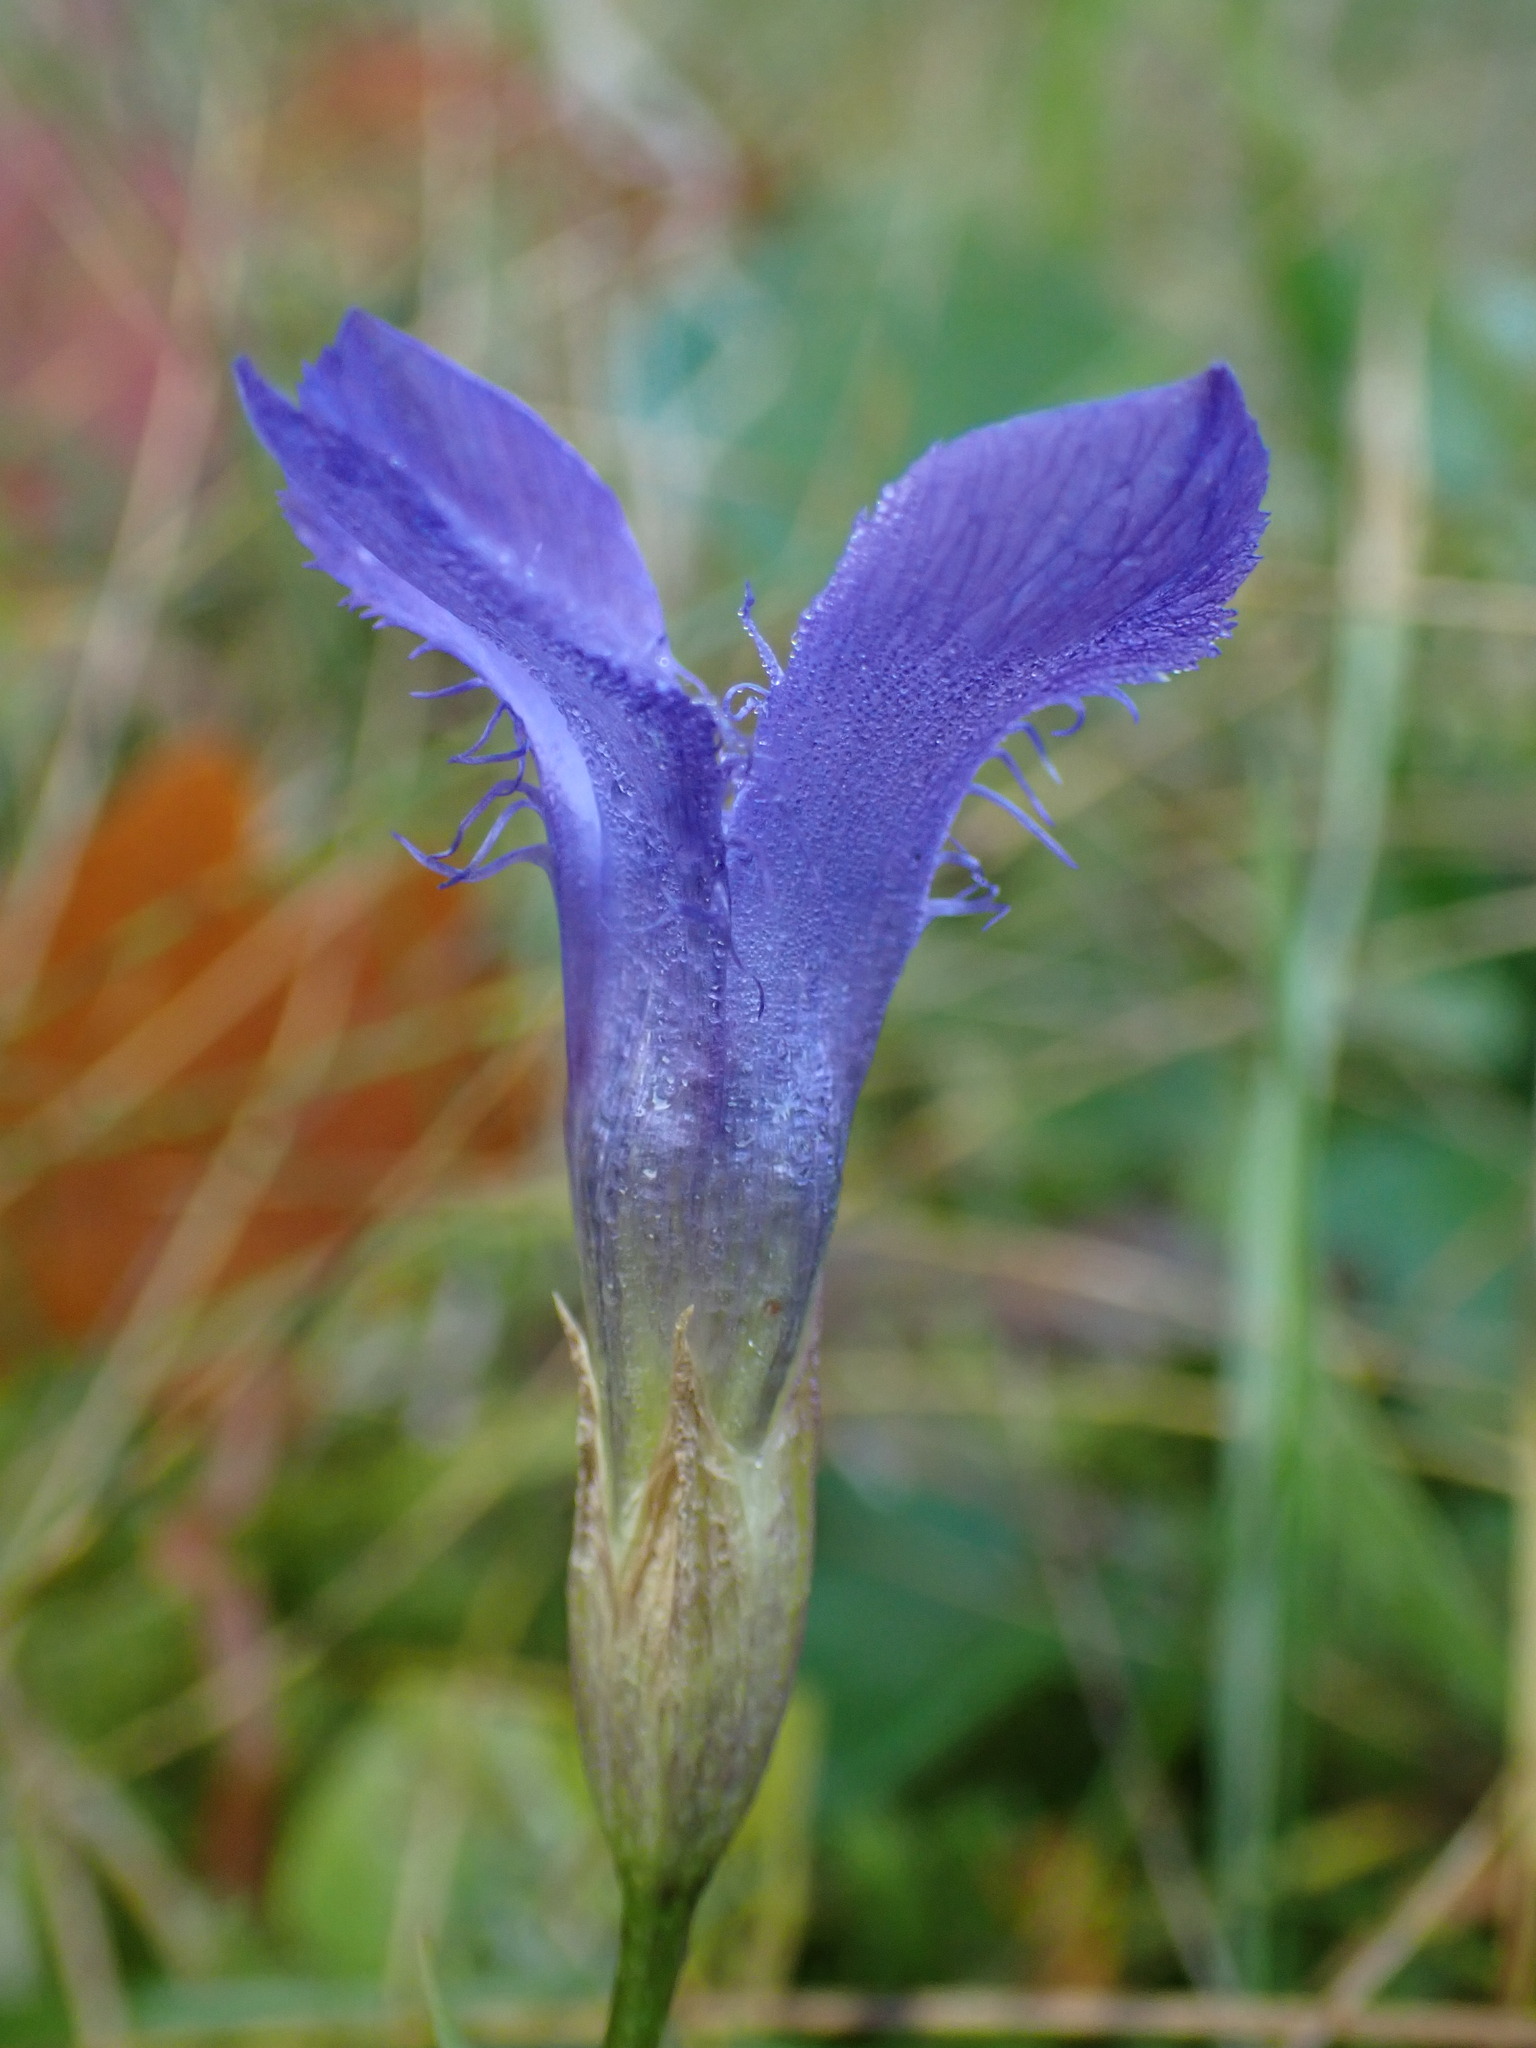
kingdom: Plantae
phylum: Tracheophyta
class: Magnoliopsida
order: Gentianales
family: Gentianaceae
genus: Gentianopsis
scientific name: Gentianopsis ciliata
